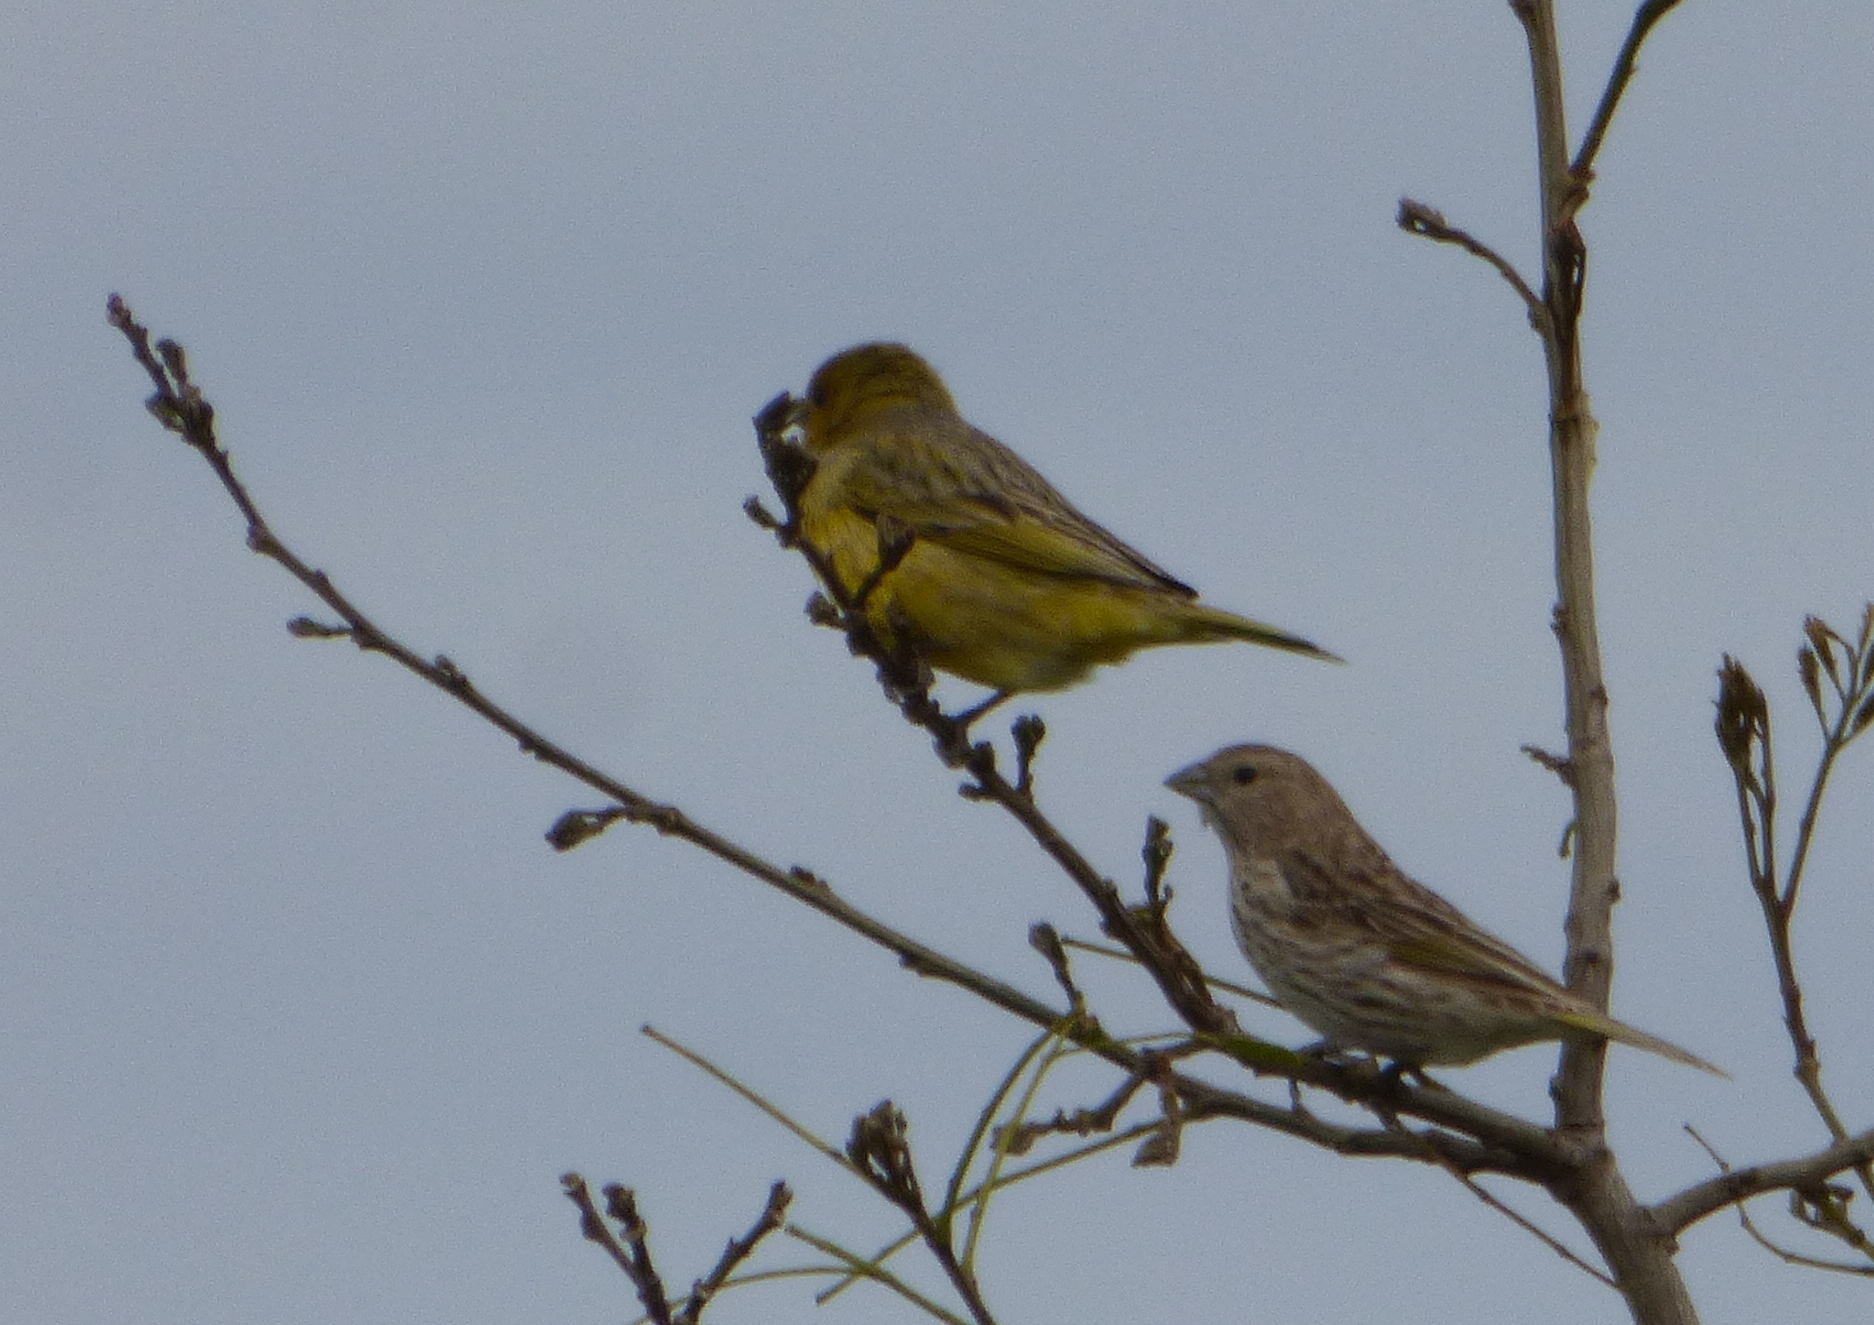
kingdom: Animalia
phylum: Chordata
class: Aves
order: Passeriformes
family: Thraupidae
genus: Sicalis
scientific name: Sicalis flaveola
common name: Saffron finch
